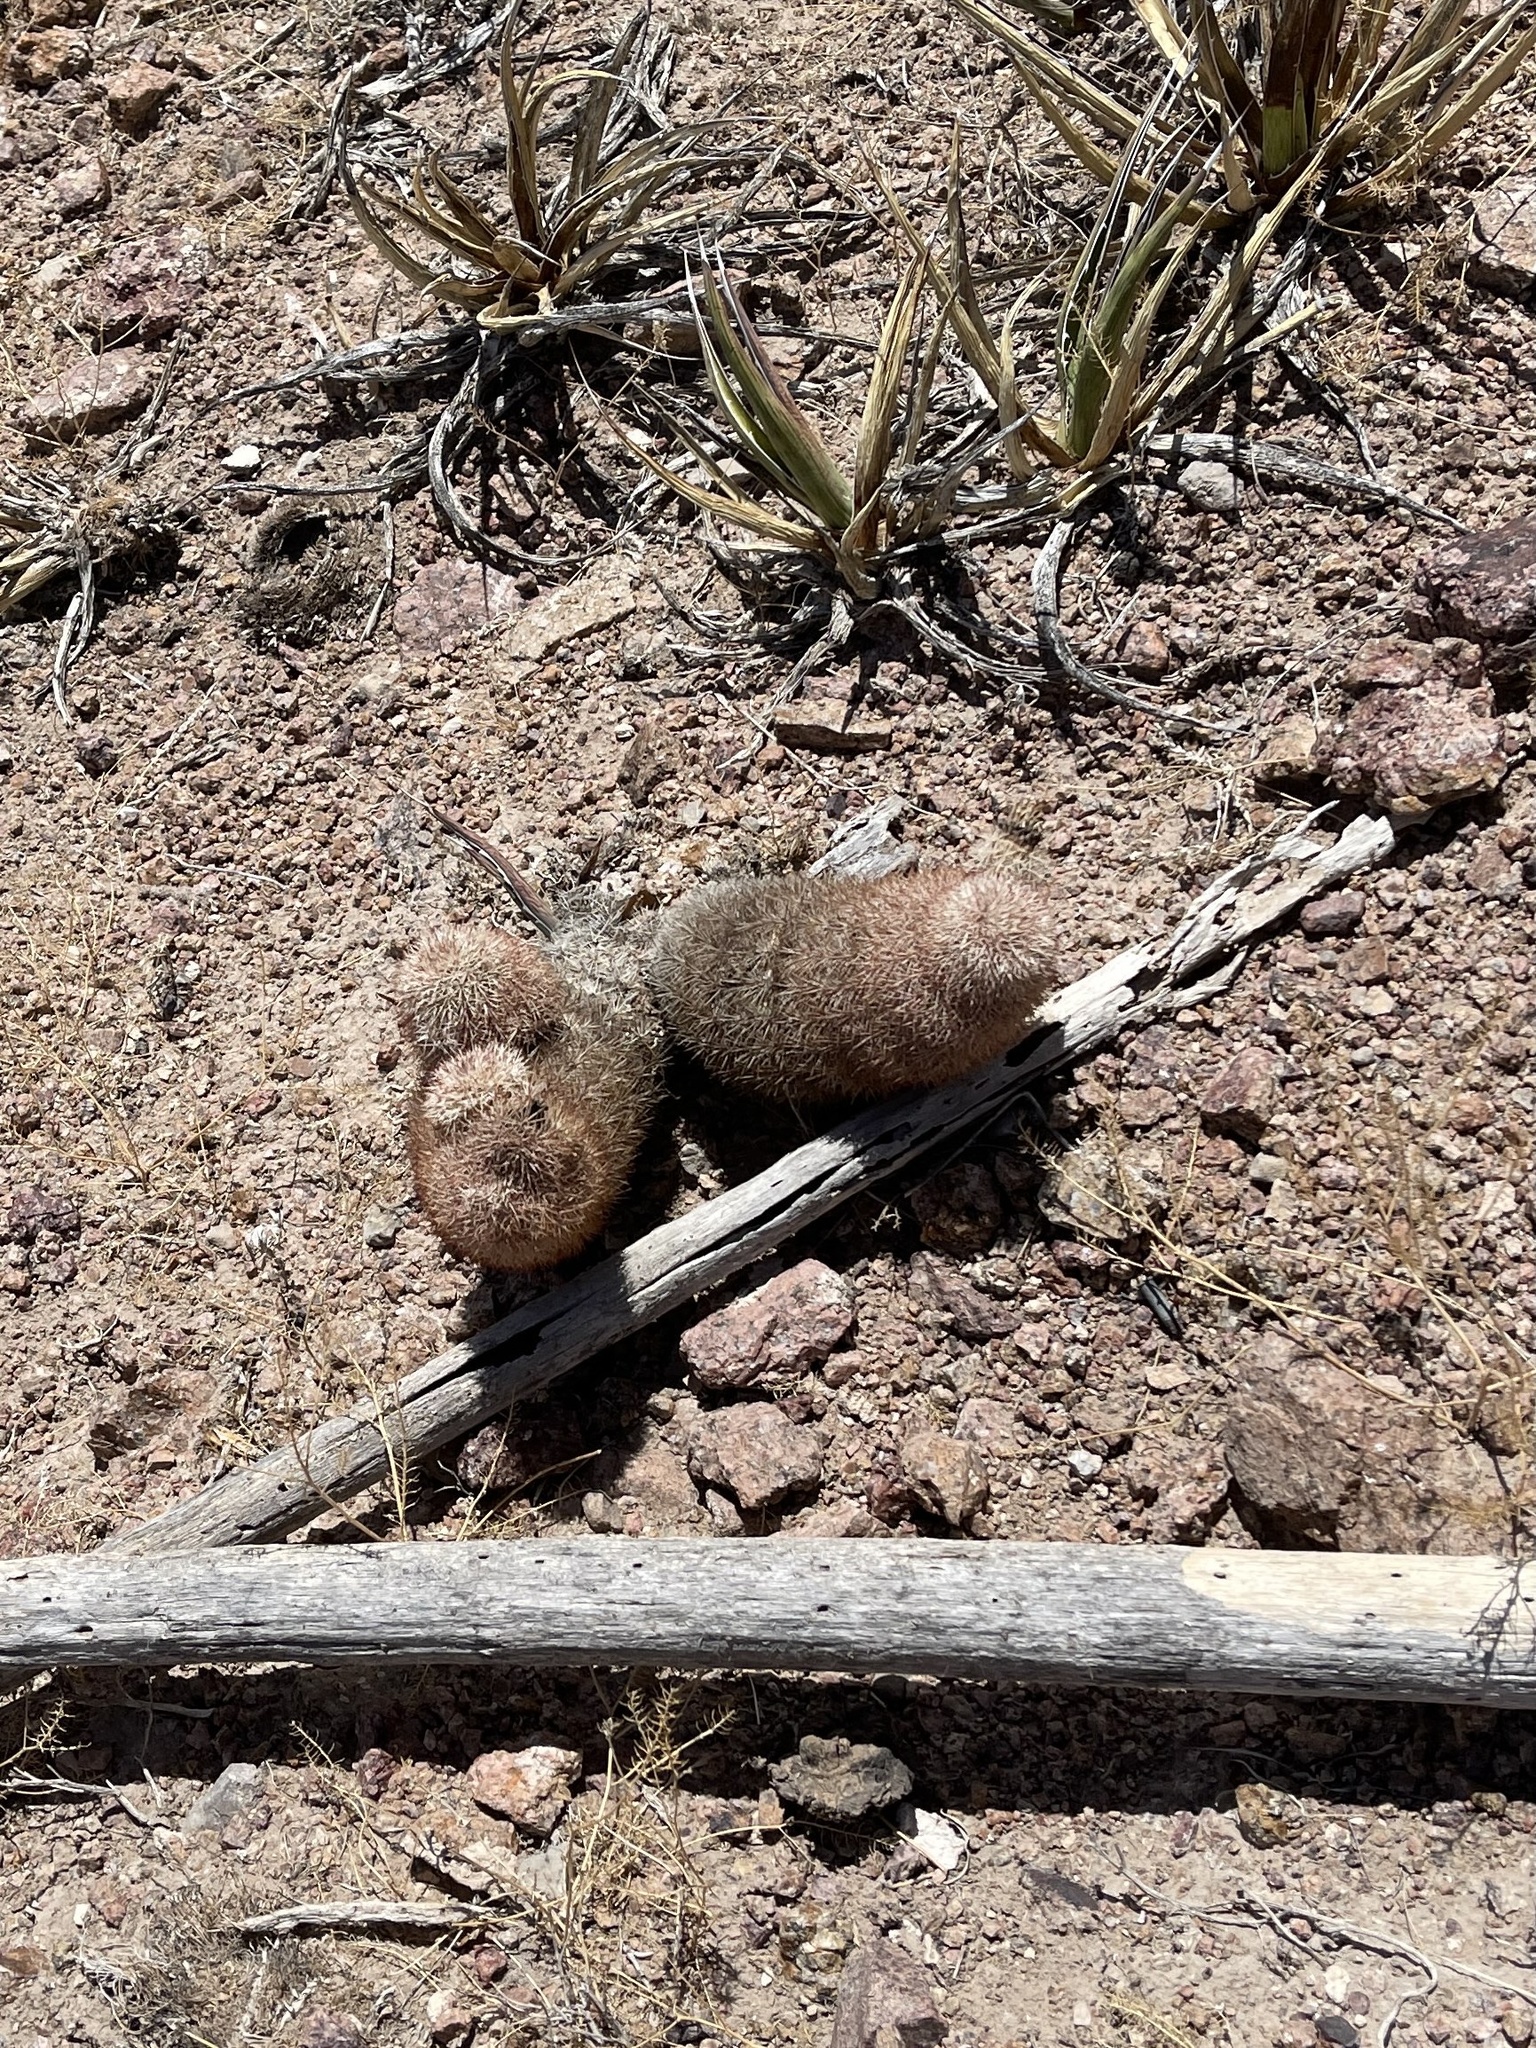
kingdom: Plantae
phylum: Tracheophyta
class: Magnoliopsida
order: Caryophyllales
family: Cactaceae
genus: Echinocereus
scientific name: Echinocereus dasyacanthus
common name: Spiny hedgehog cactus
